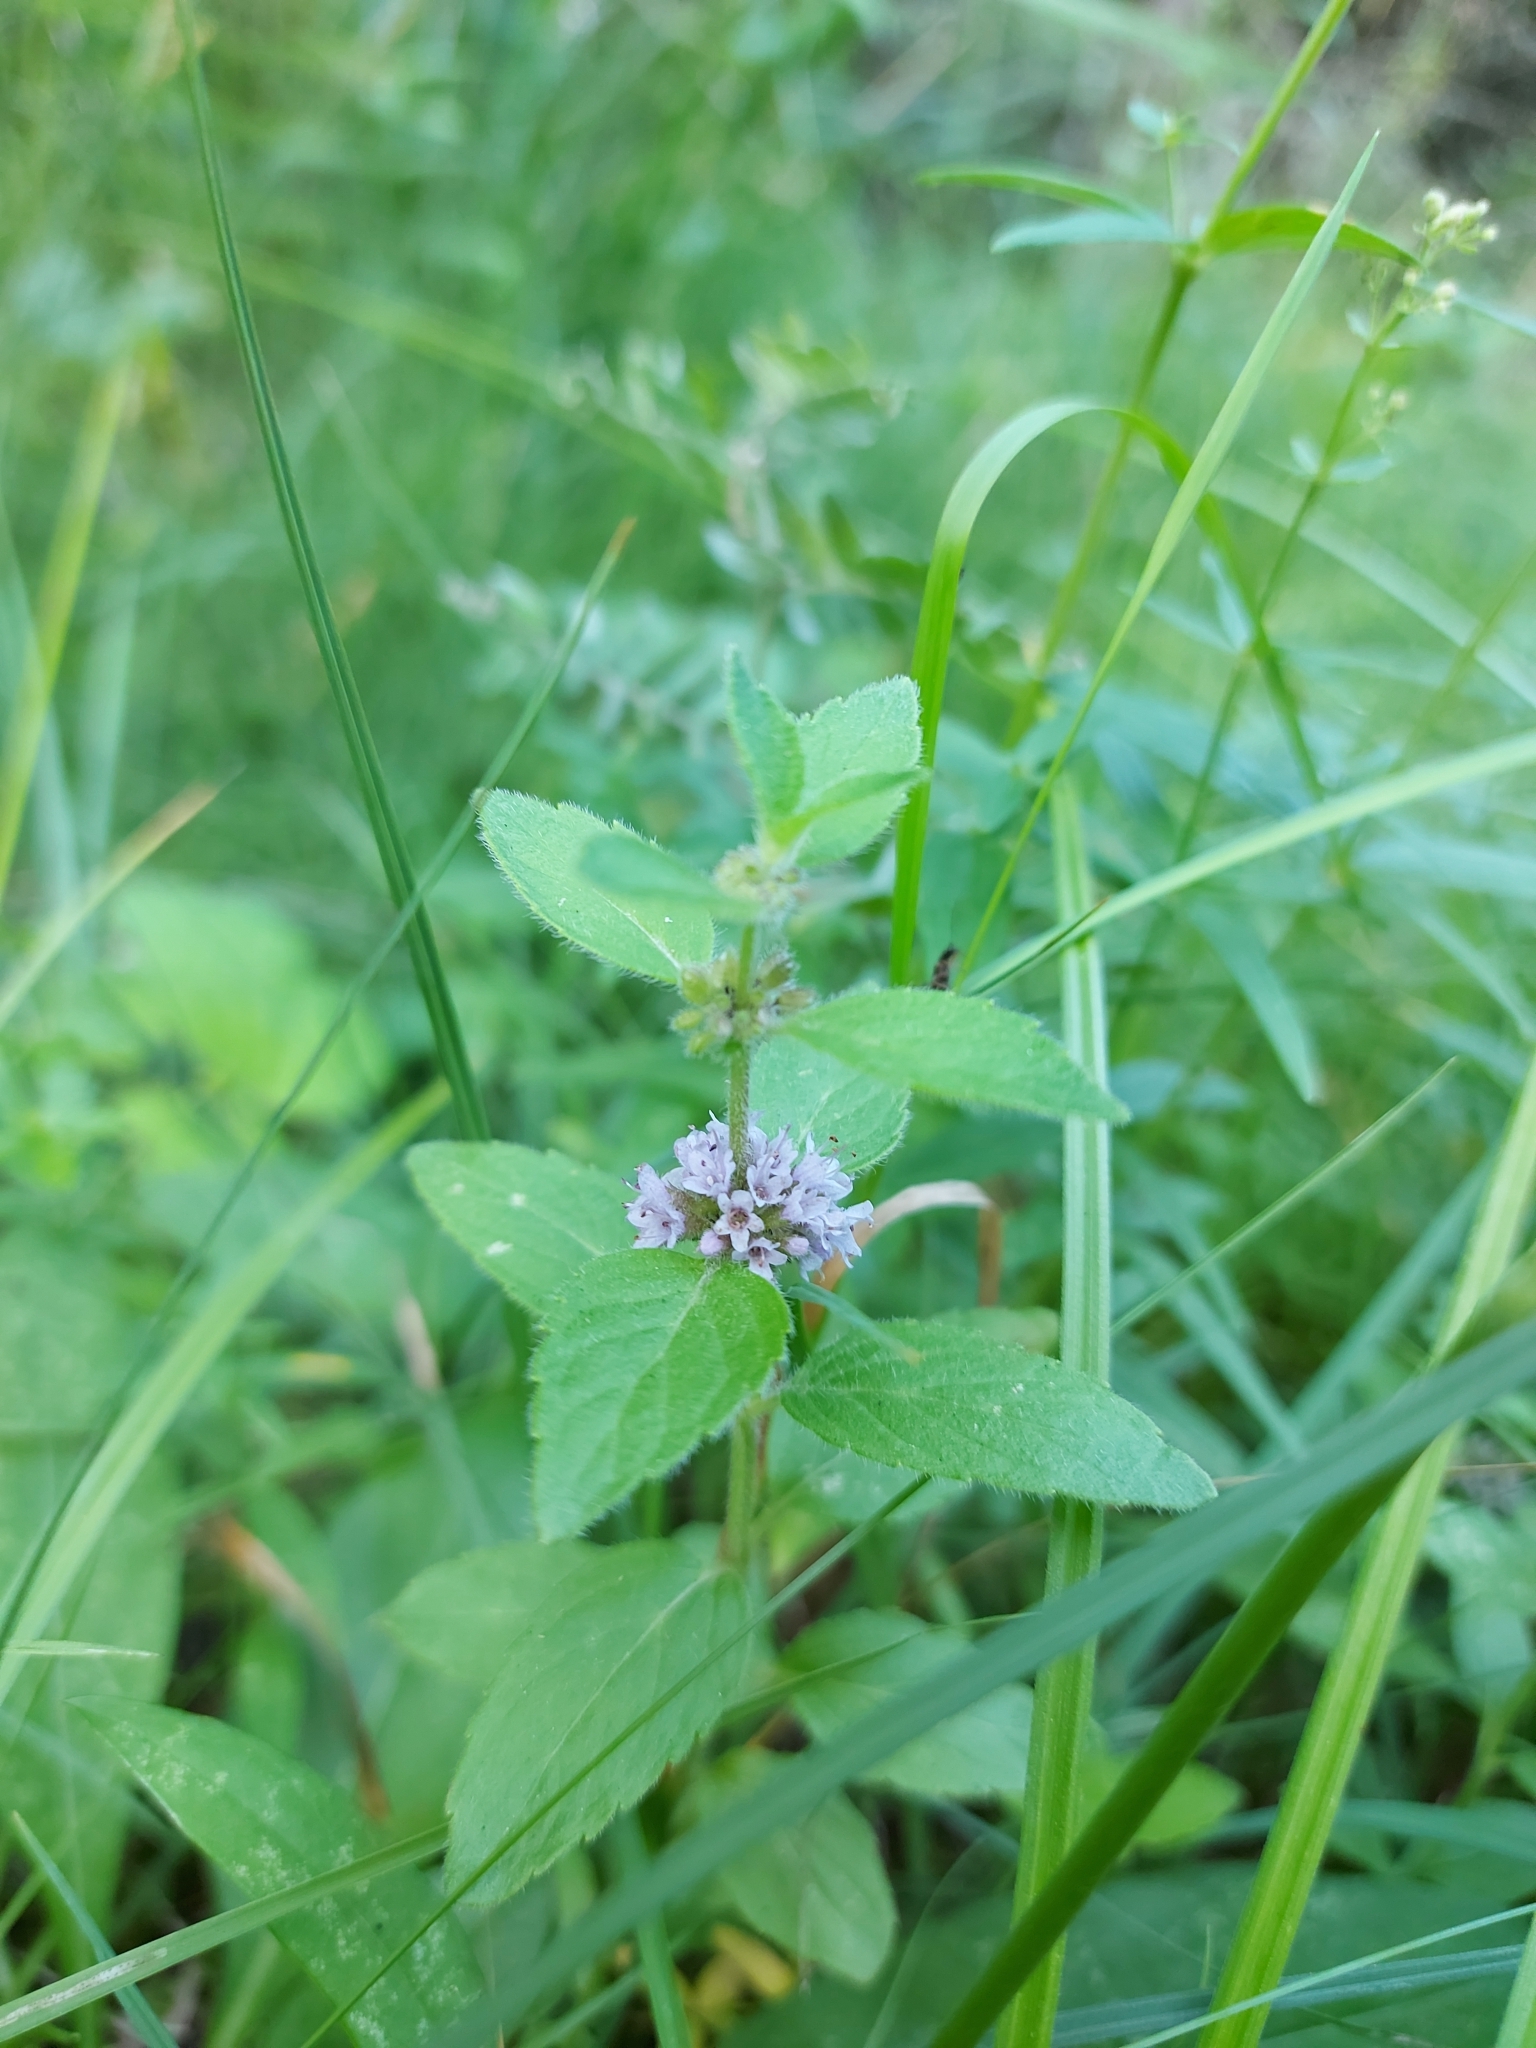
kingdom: Plantae
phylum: Tracheophyta
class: Magnoliopsida
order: Lamiales
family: Lamiaceae
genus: Mentha
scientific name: Mentha arvensis
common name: Corn mint
